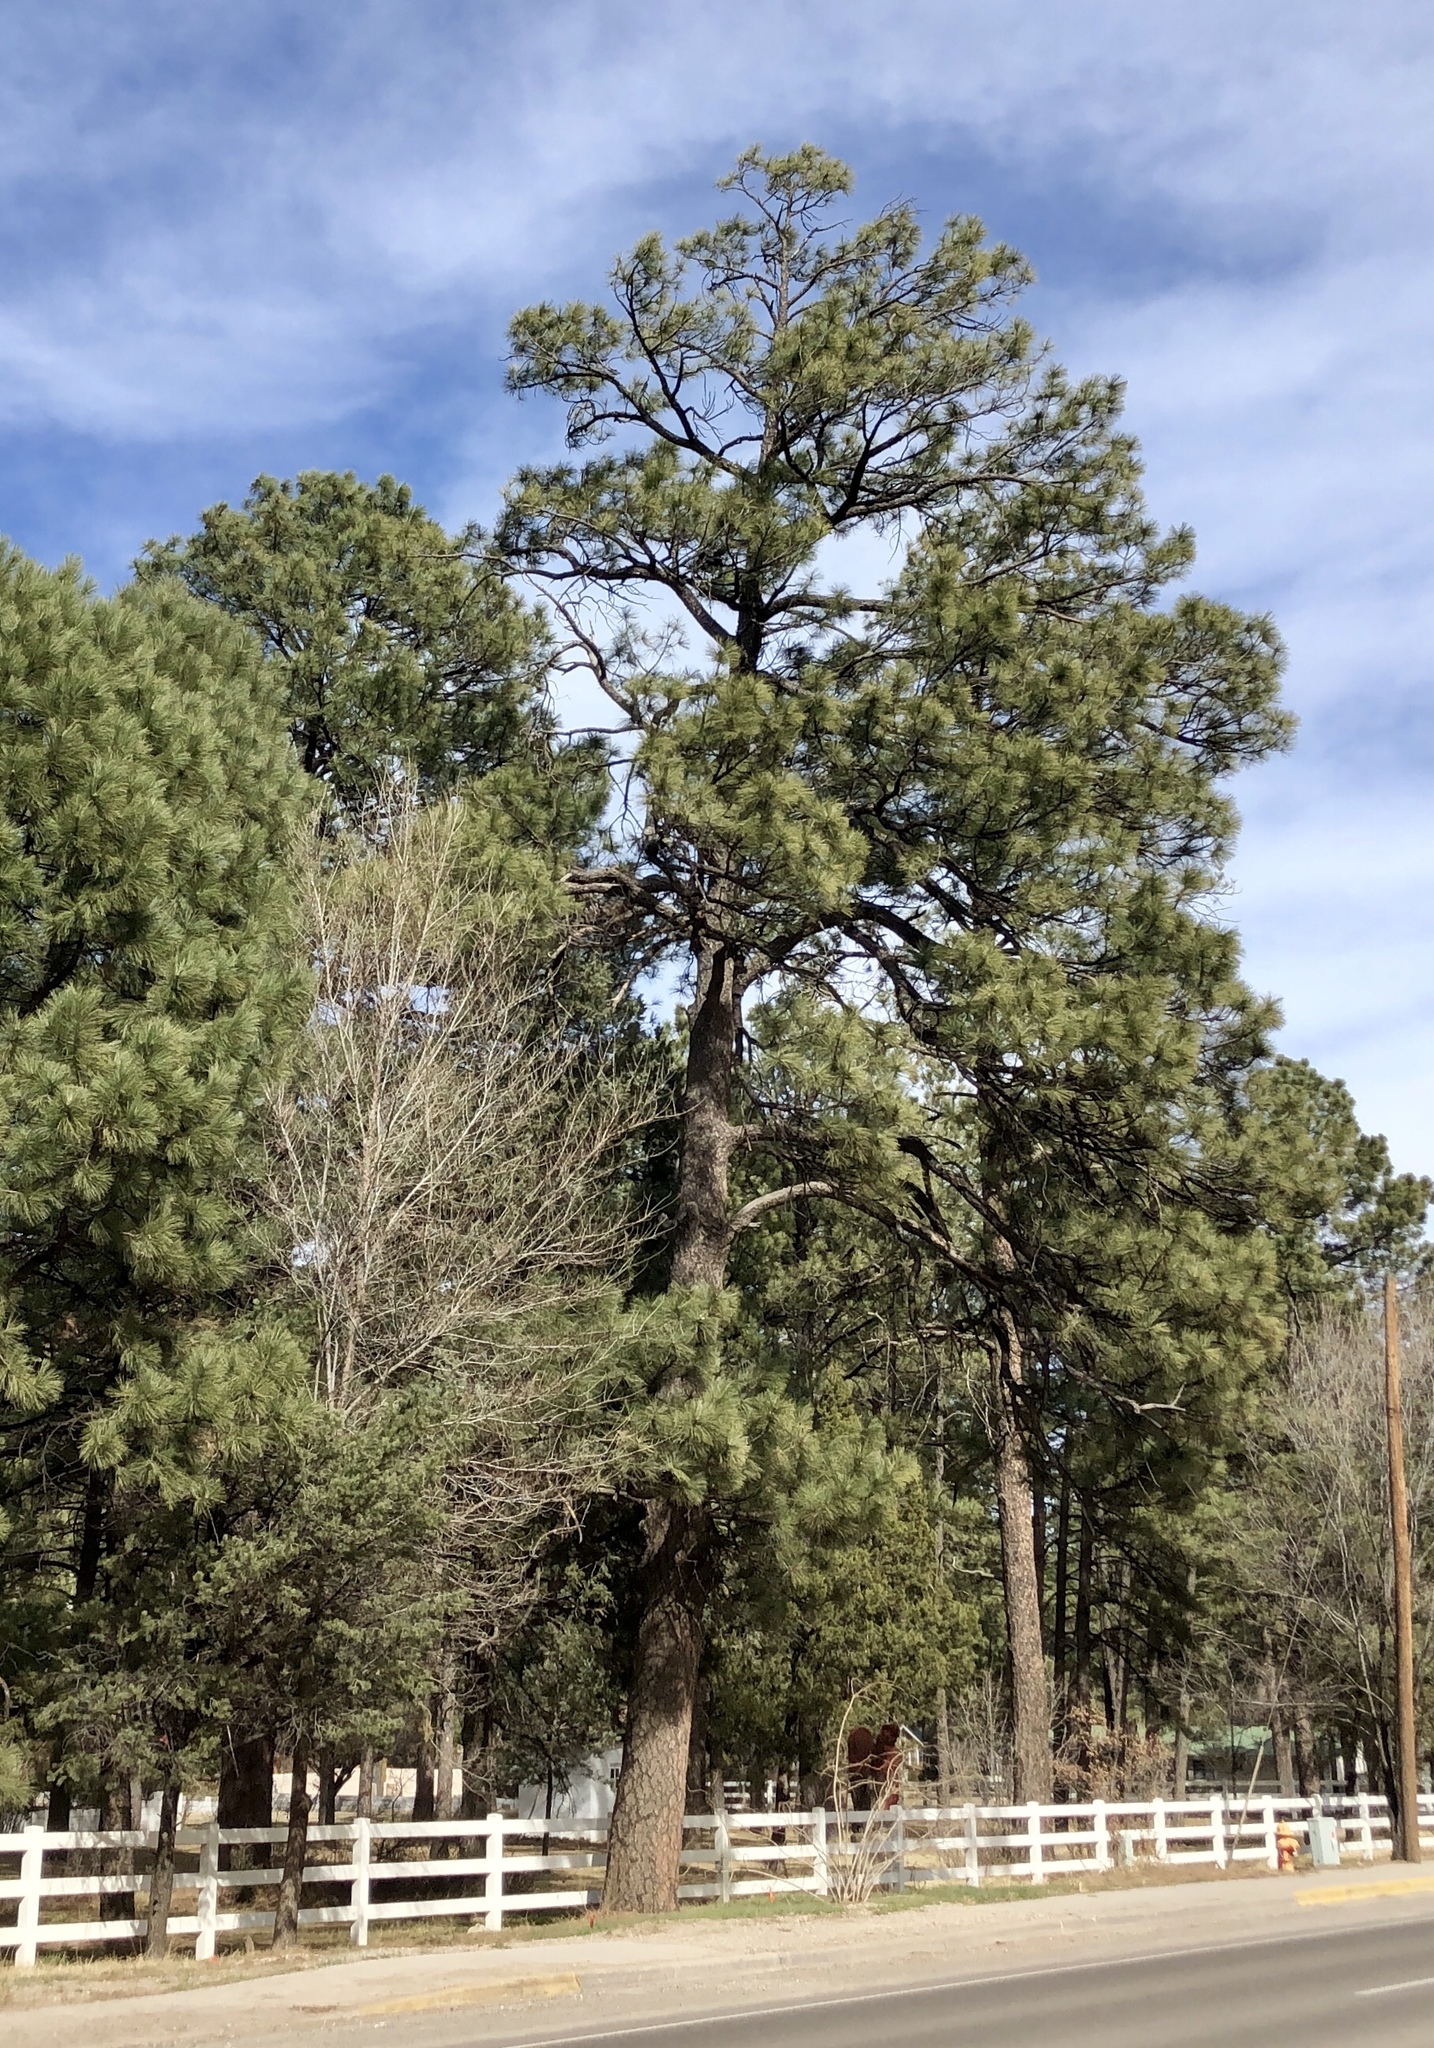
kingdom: Plantae
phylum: Tracheophyta
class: Pinopsida
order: Pinales
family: Pinaceae
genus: Pinus
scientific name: Pinus ponderosa
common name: Western yellow-pine
